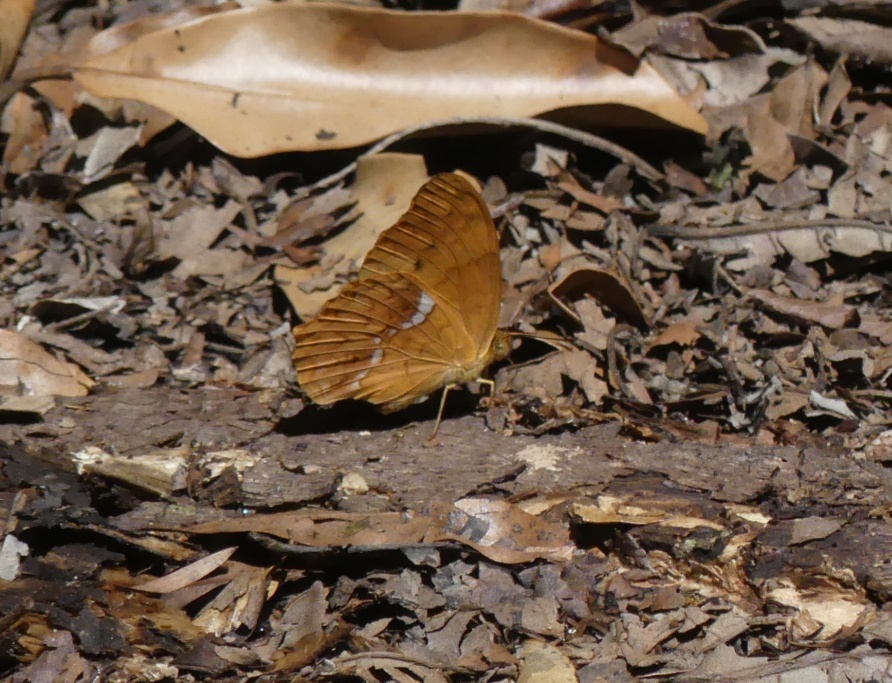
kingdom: Animalia
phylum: Arthropoda
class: Insecta
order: Lepidoptera
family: Nymphalidae
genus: Lachnoptera
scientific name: Lachnoptera ayresii
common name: Blotched leopard
